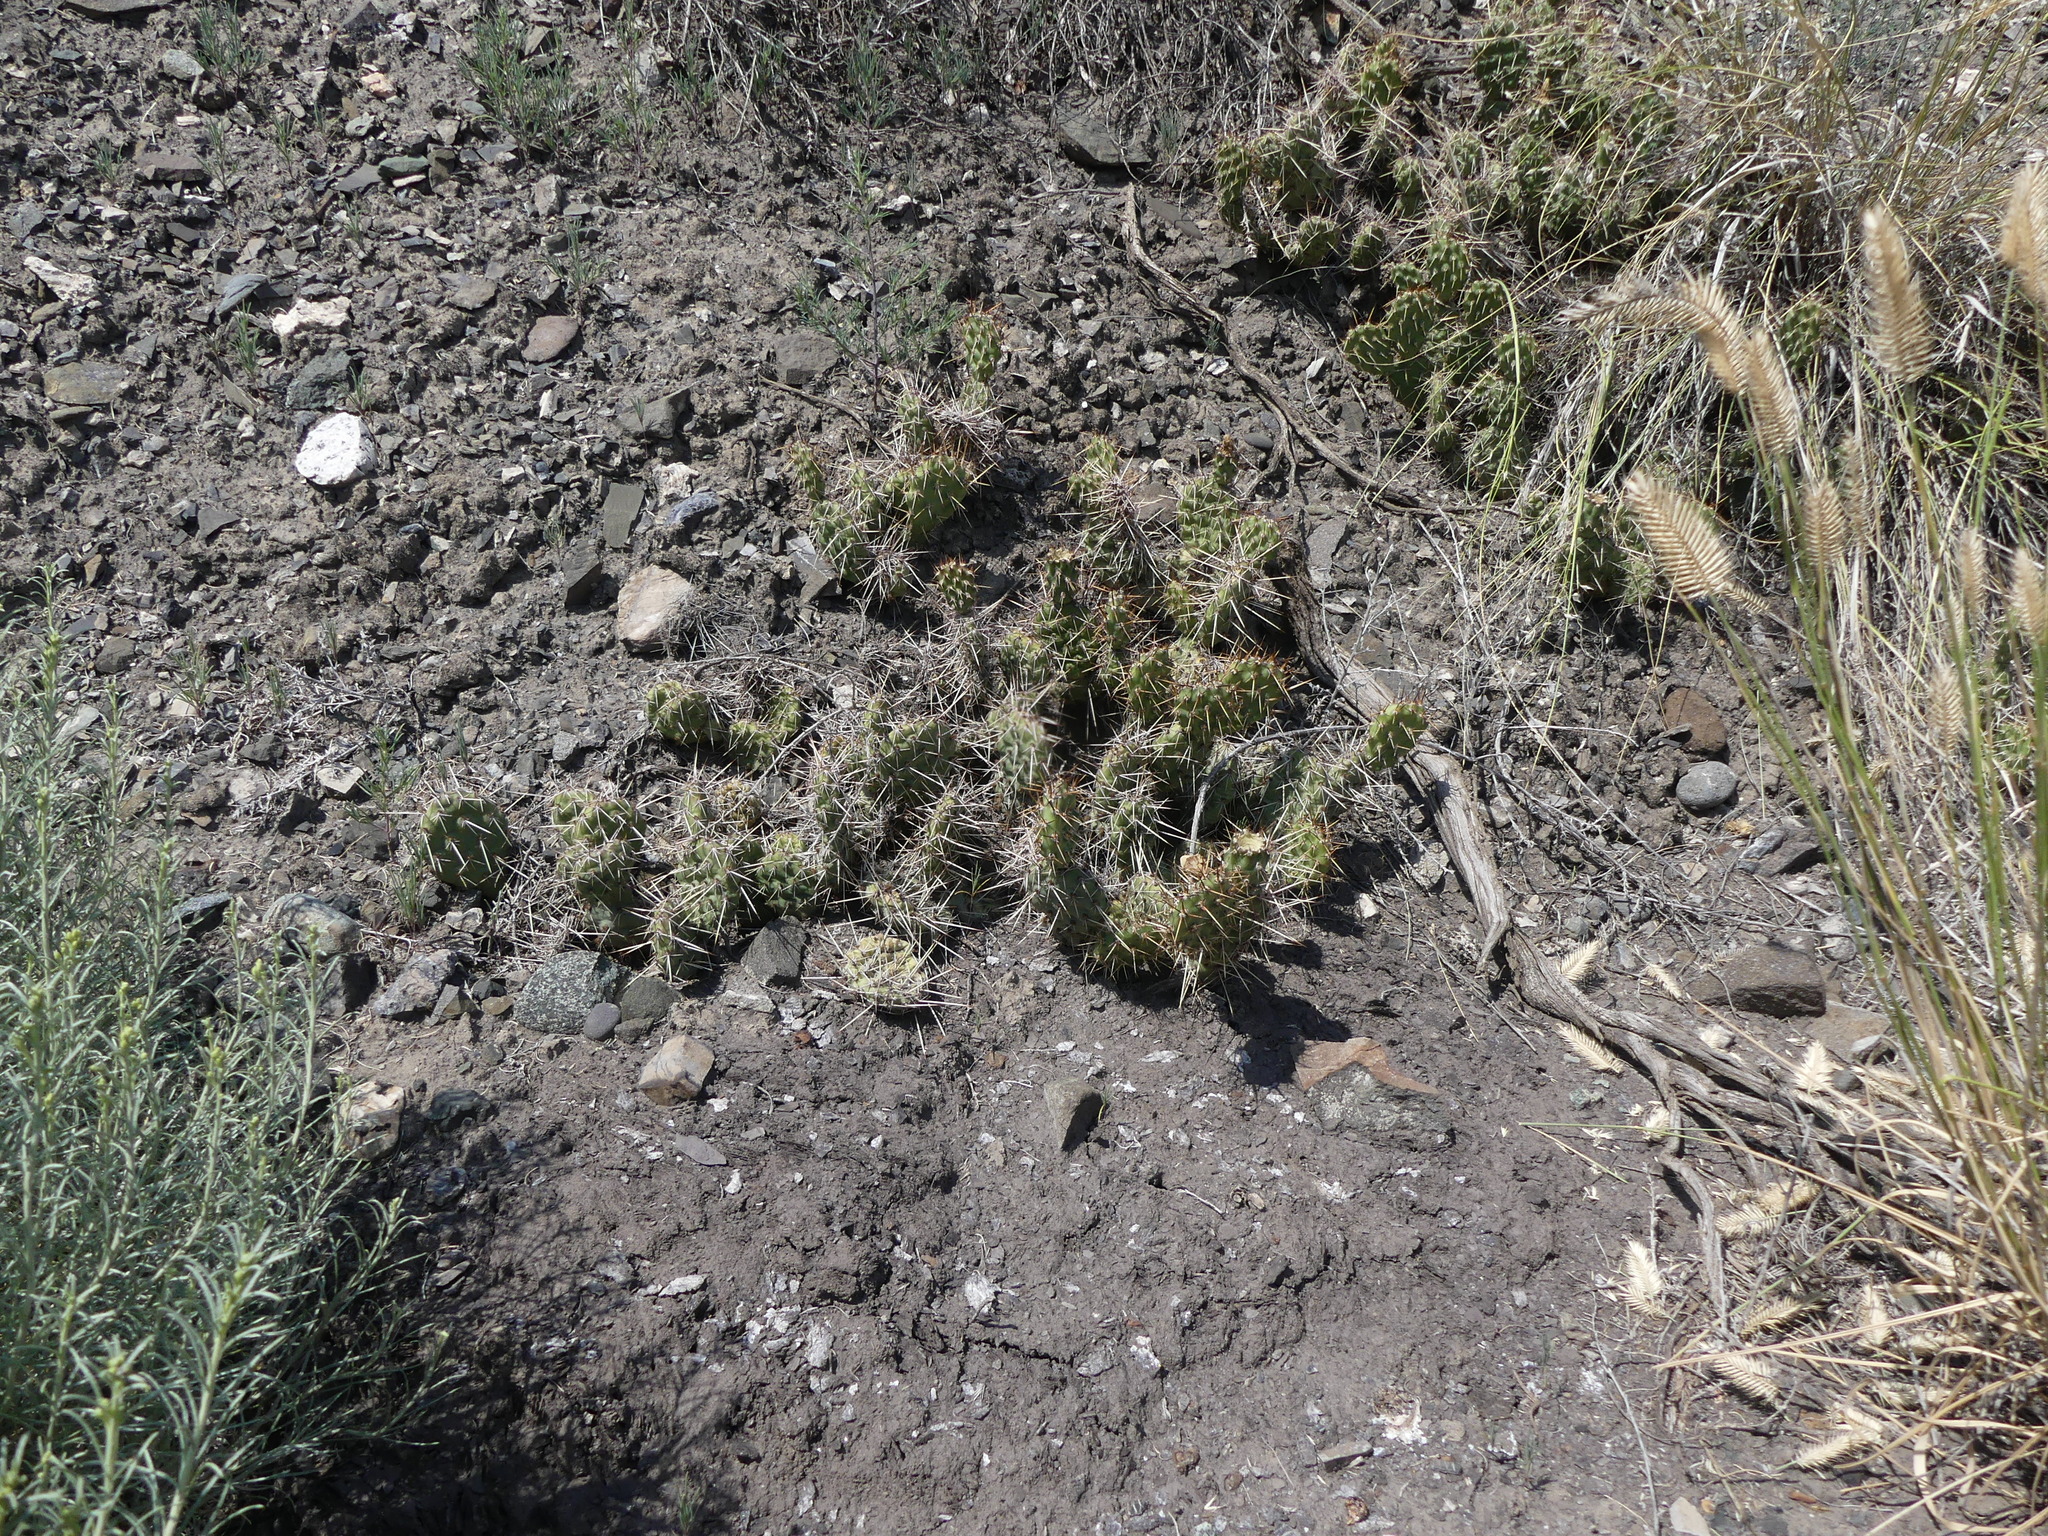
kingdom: Plantae
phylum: Tracheophyta
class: Magnoliopsida
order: Caryophyllales
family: Cactaceae
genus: Opuntia
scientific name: Opuntia columbiana
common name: Columbia prickly-pear
